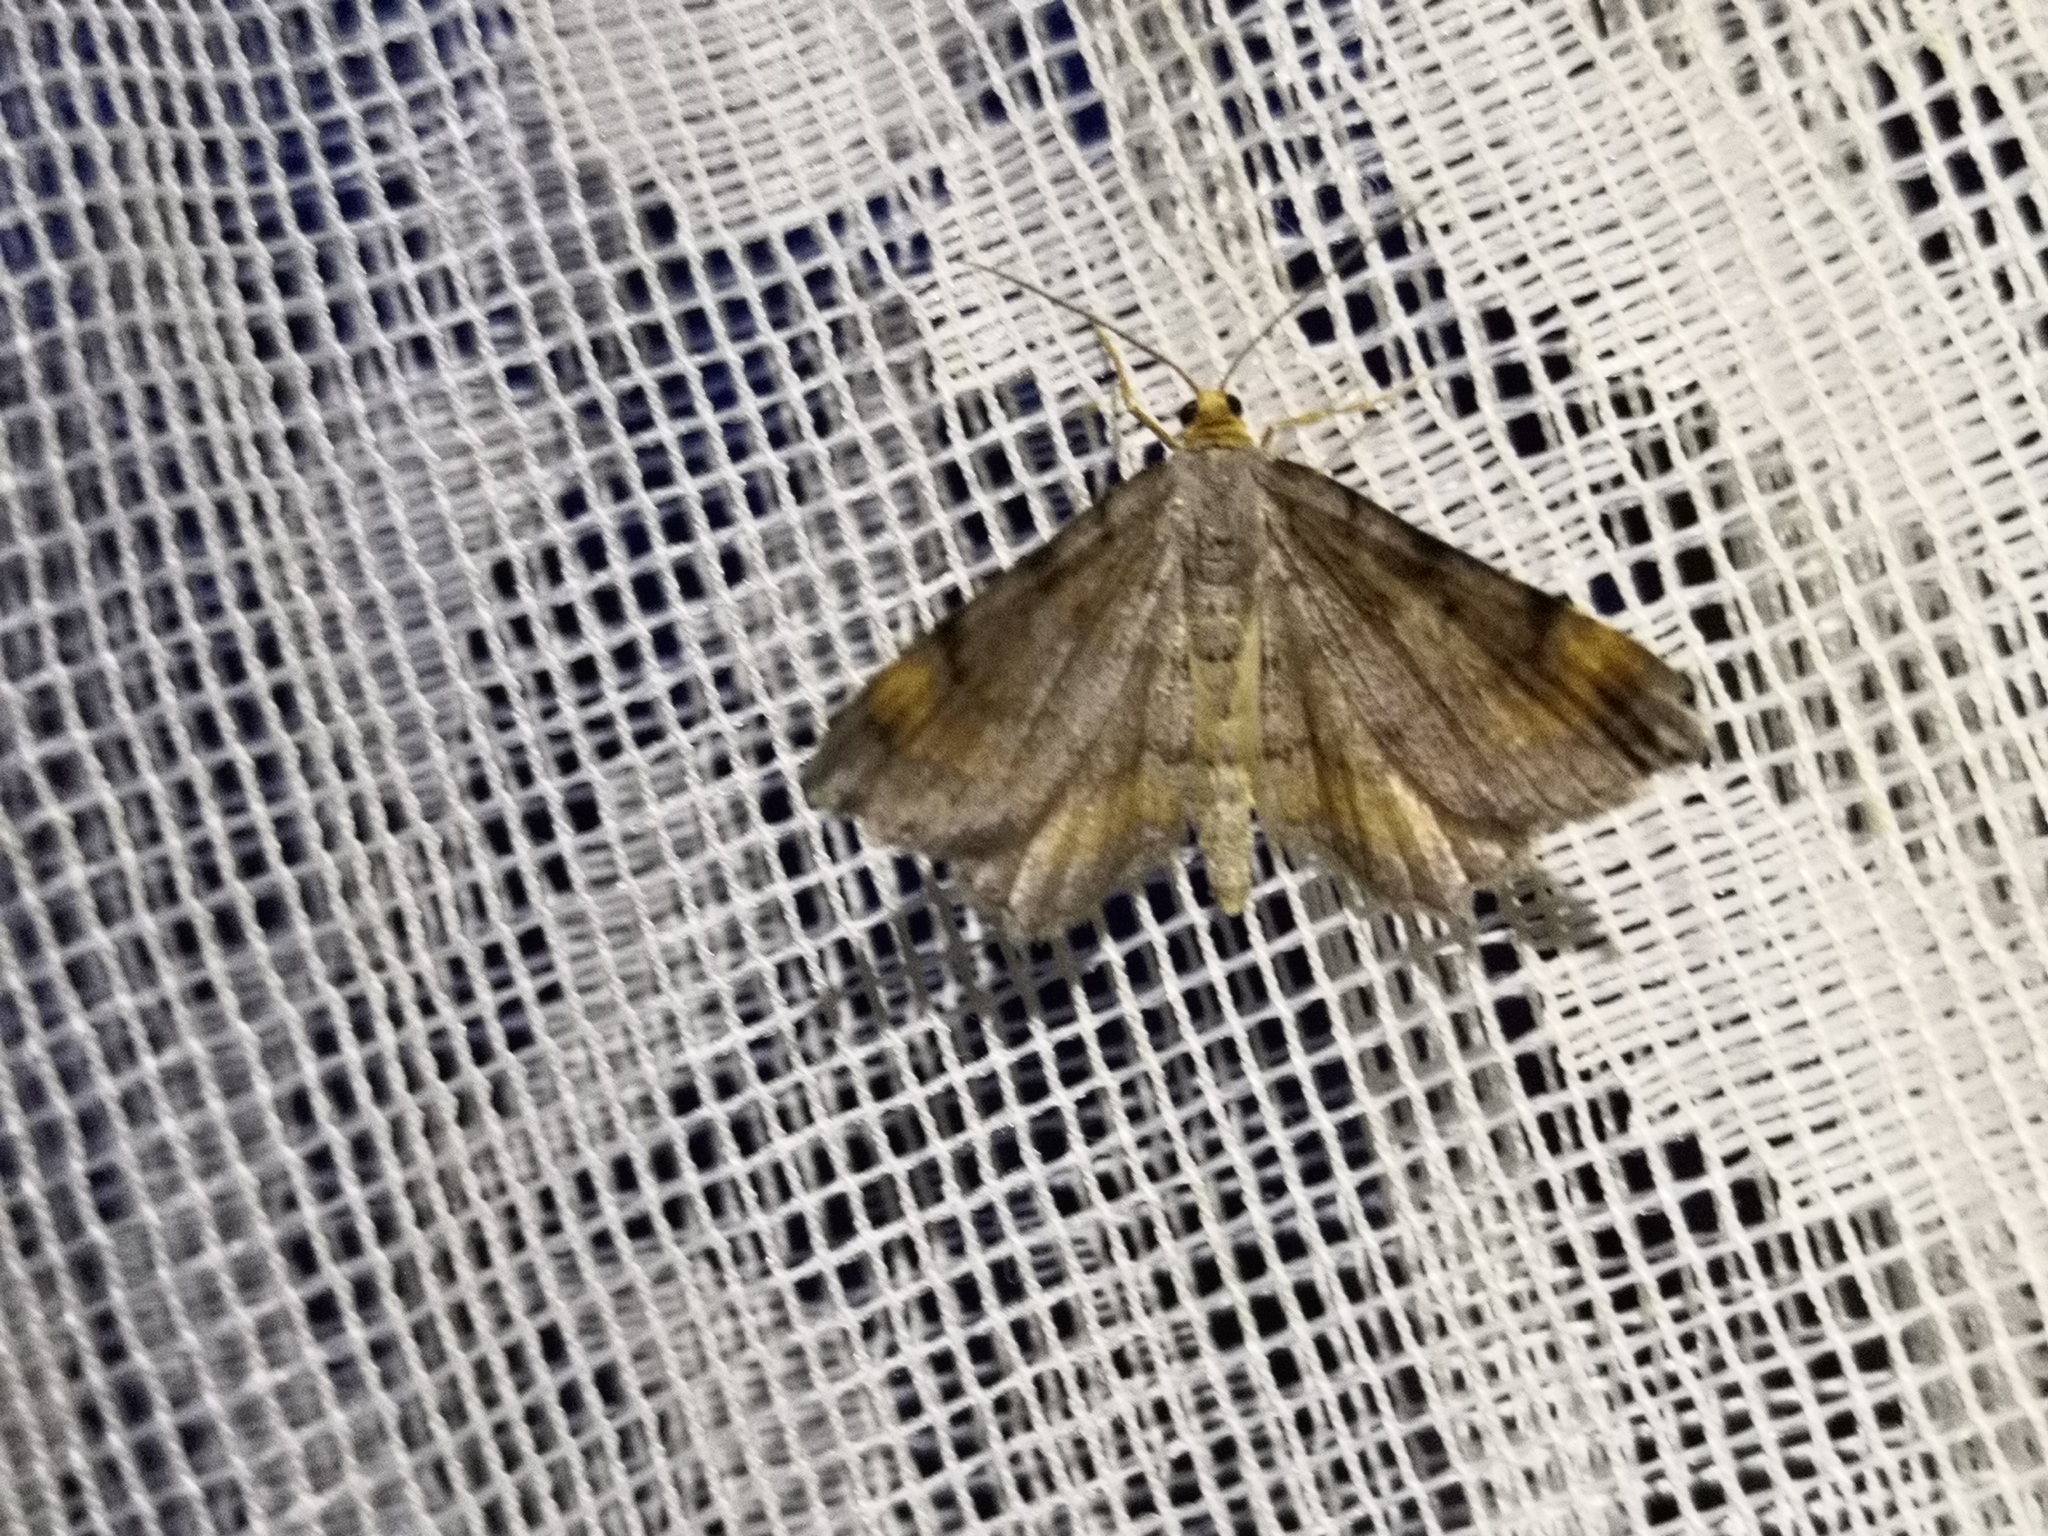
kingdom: Animalia
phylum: Arthropoda
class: Insecta
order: Lepidoptera
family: Geometridae
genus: Macaria
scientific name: Macaria liturata
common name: Tawny-barred angle
